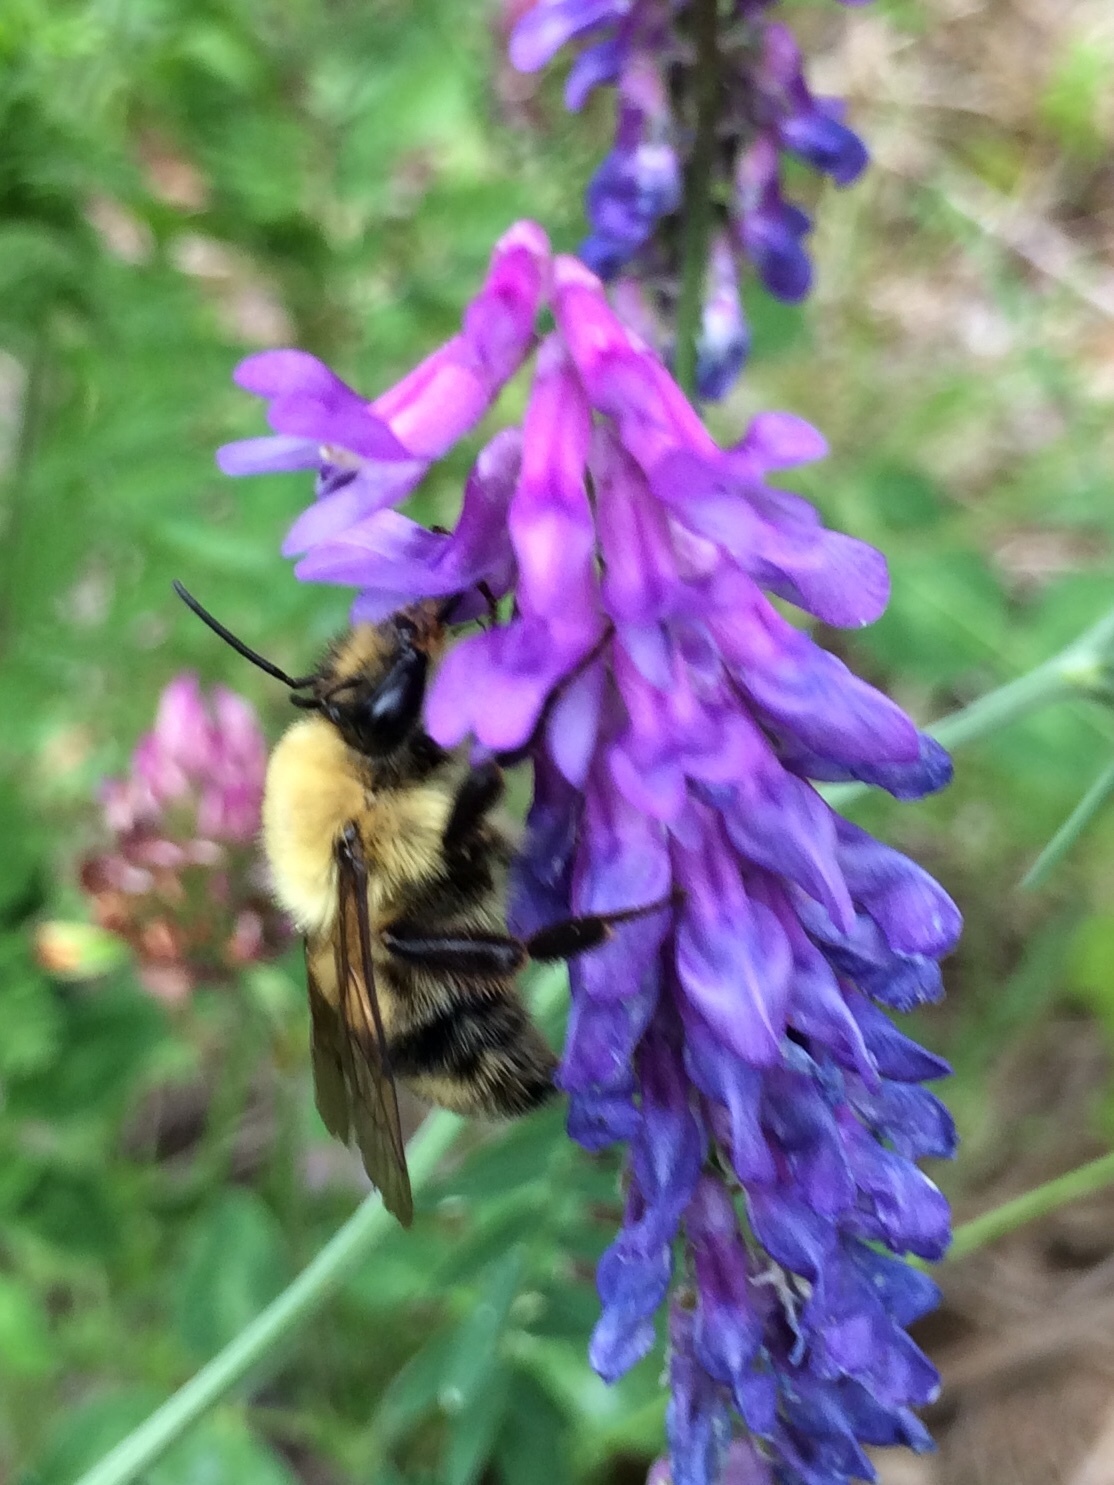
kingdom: Animalia
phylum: Arthropoda
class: Insecta
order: Hymenoptera
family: Apidae
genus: Bombus
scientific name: Bombus bimaculatus
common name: Two-spotted bumble bee
